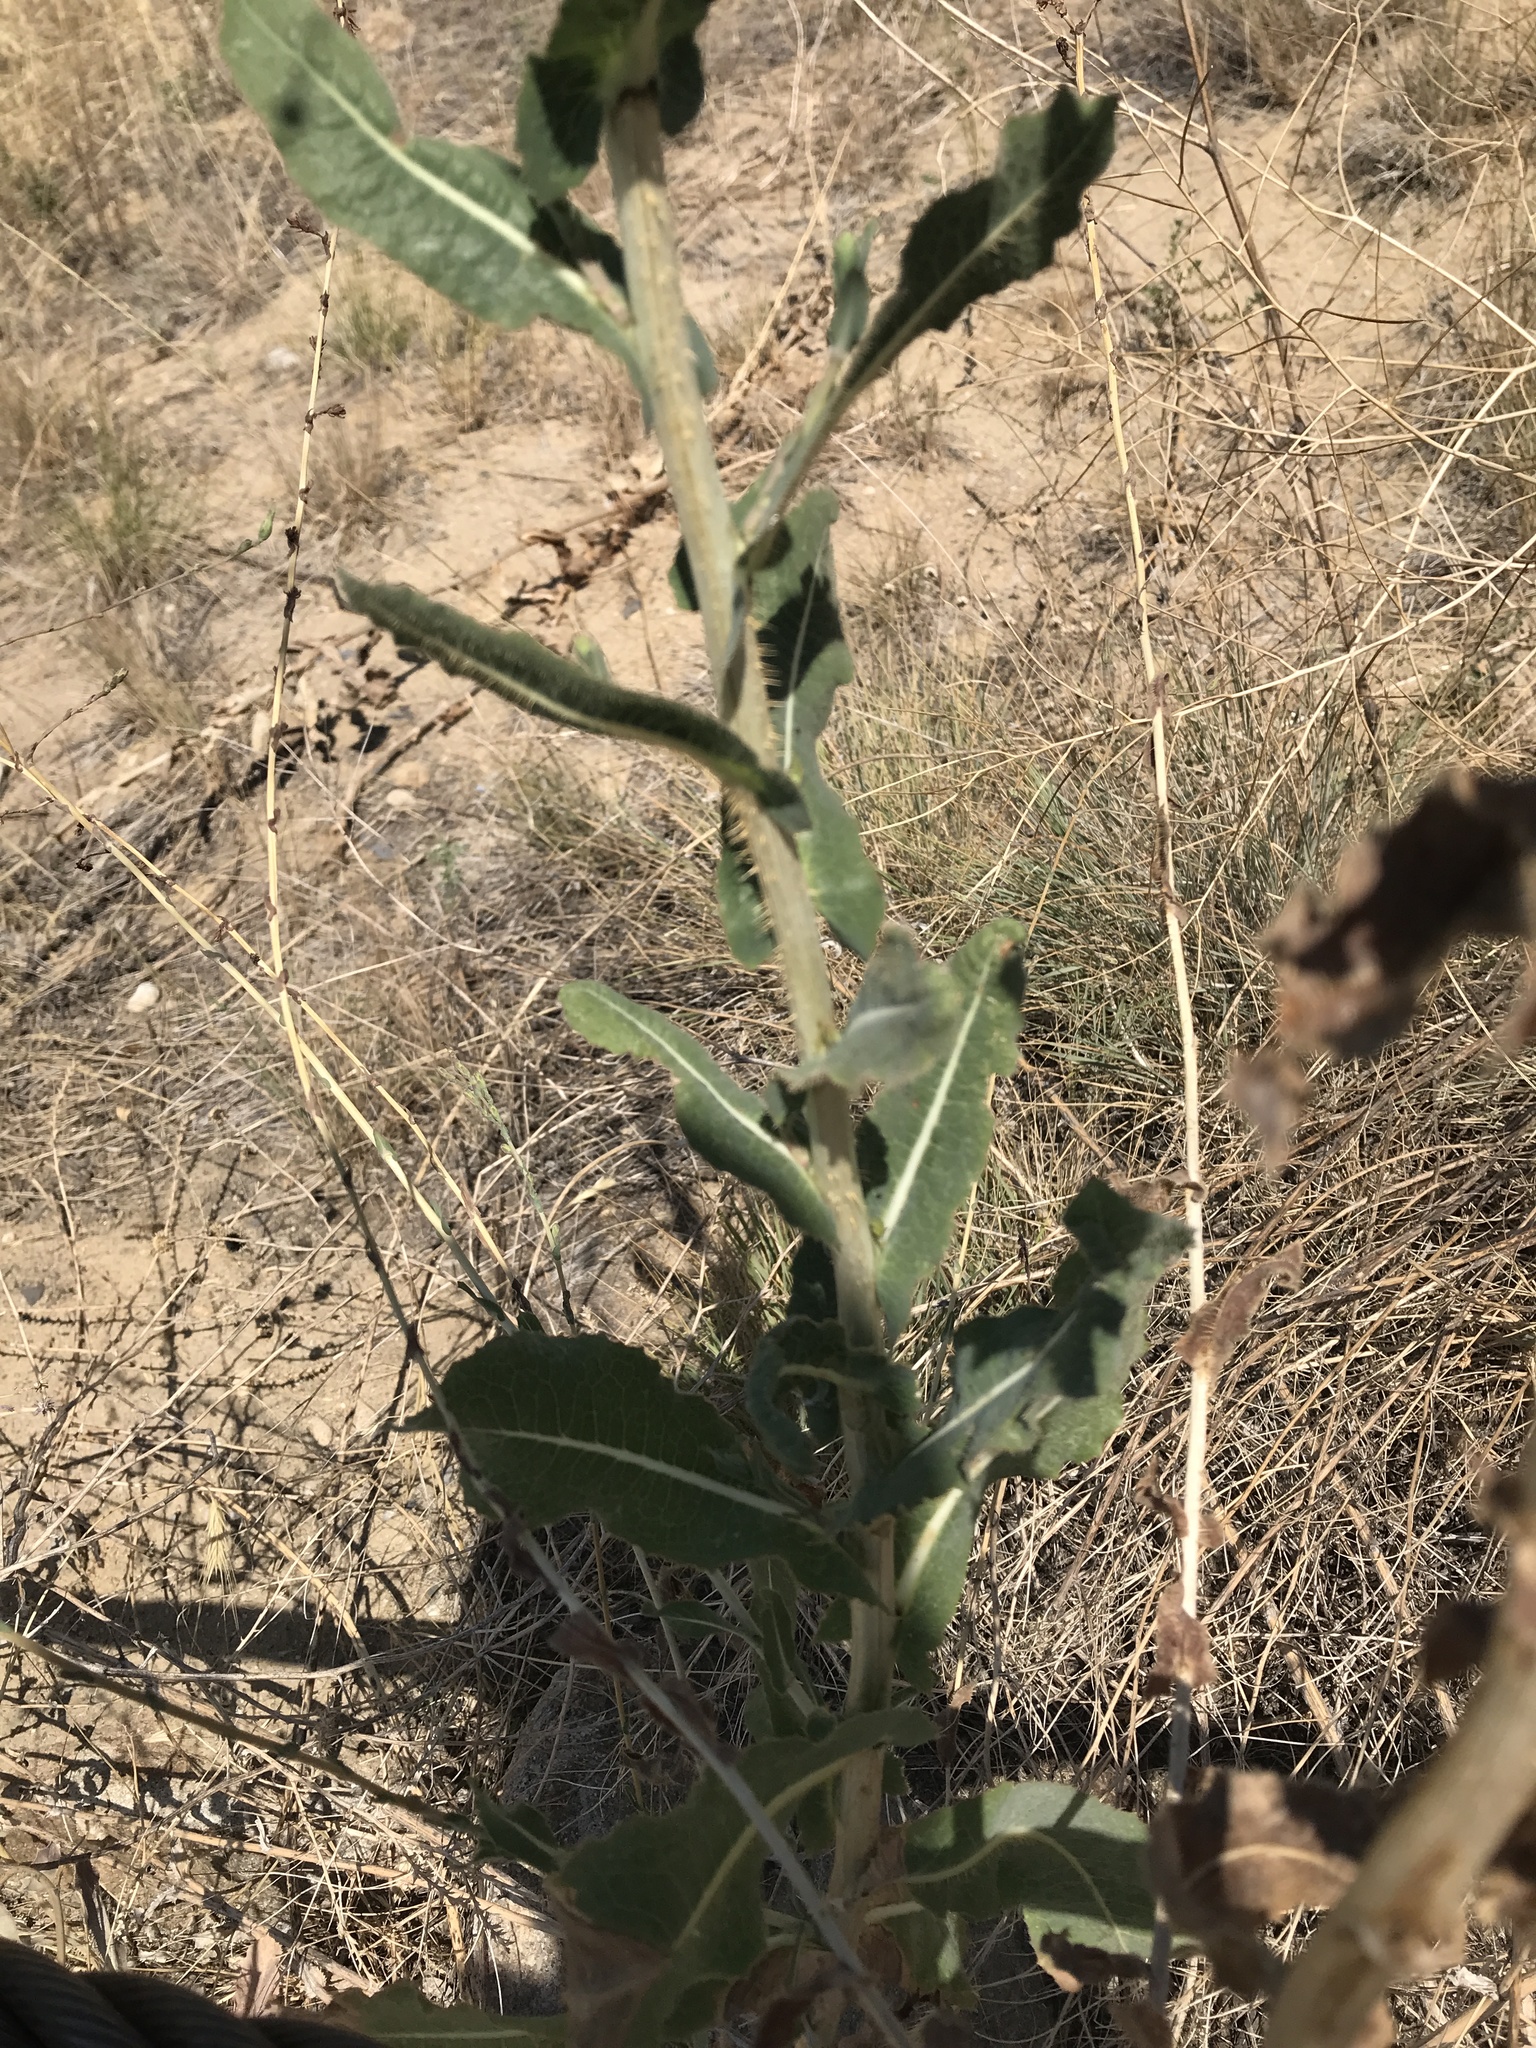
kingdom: Plantae
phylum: Tracheophyta
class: Magnoliopsida
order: Asterales
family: Asteraceae
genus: Lactuca
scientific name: Lactuca serriola
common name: Prickly lettuce
